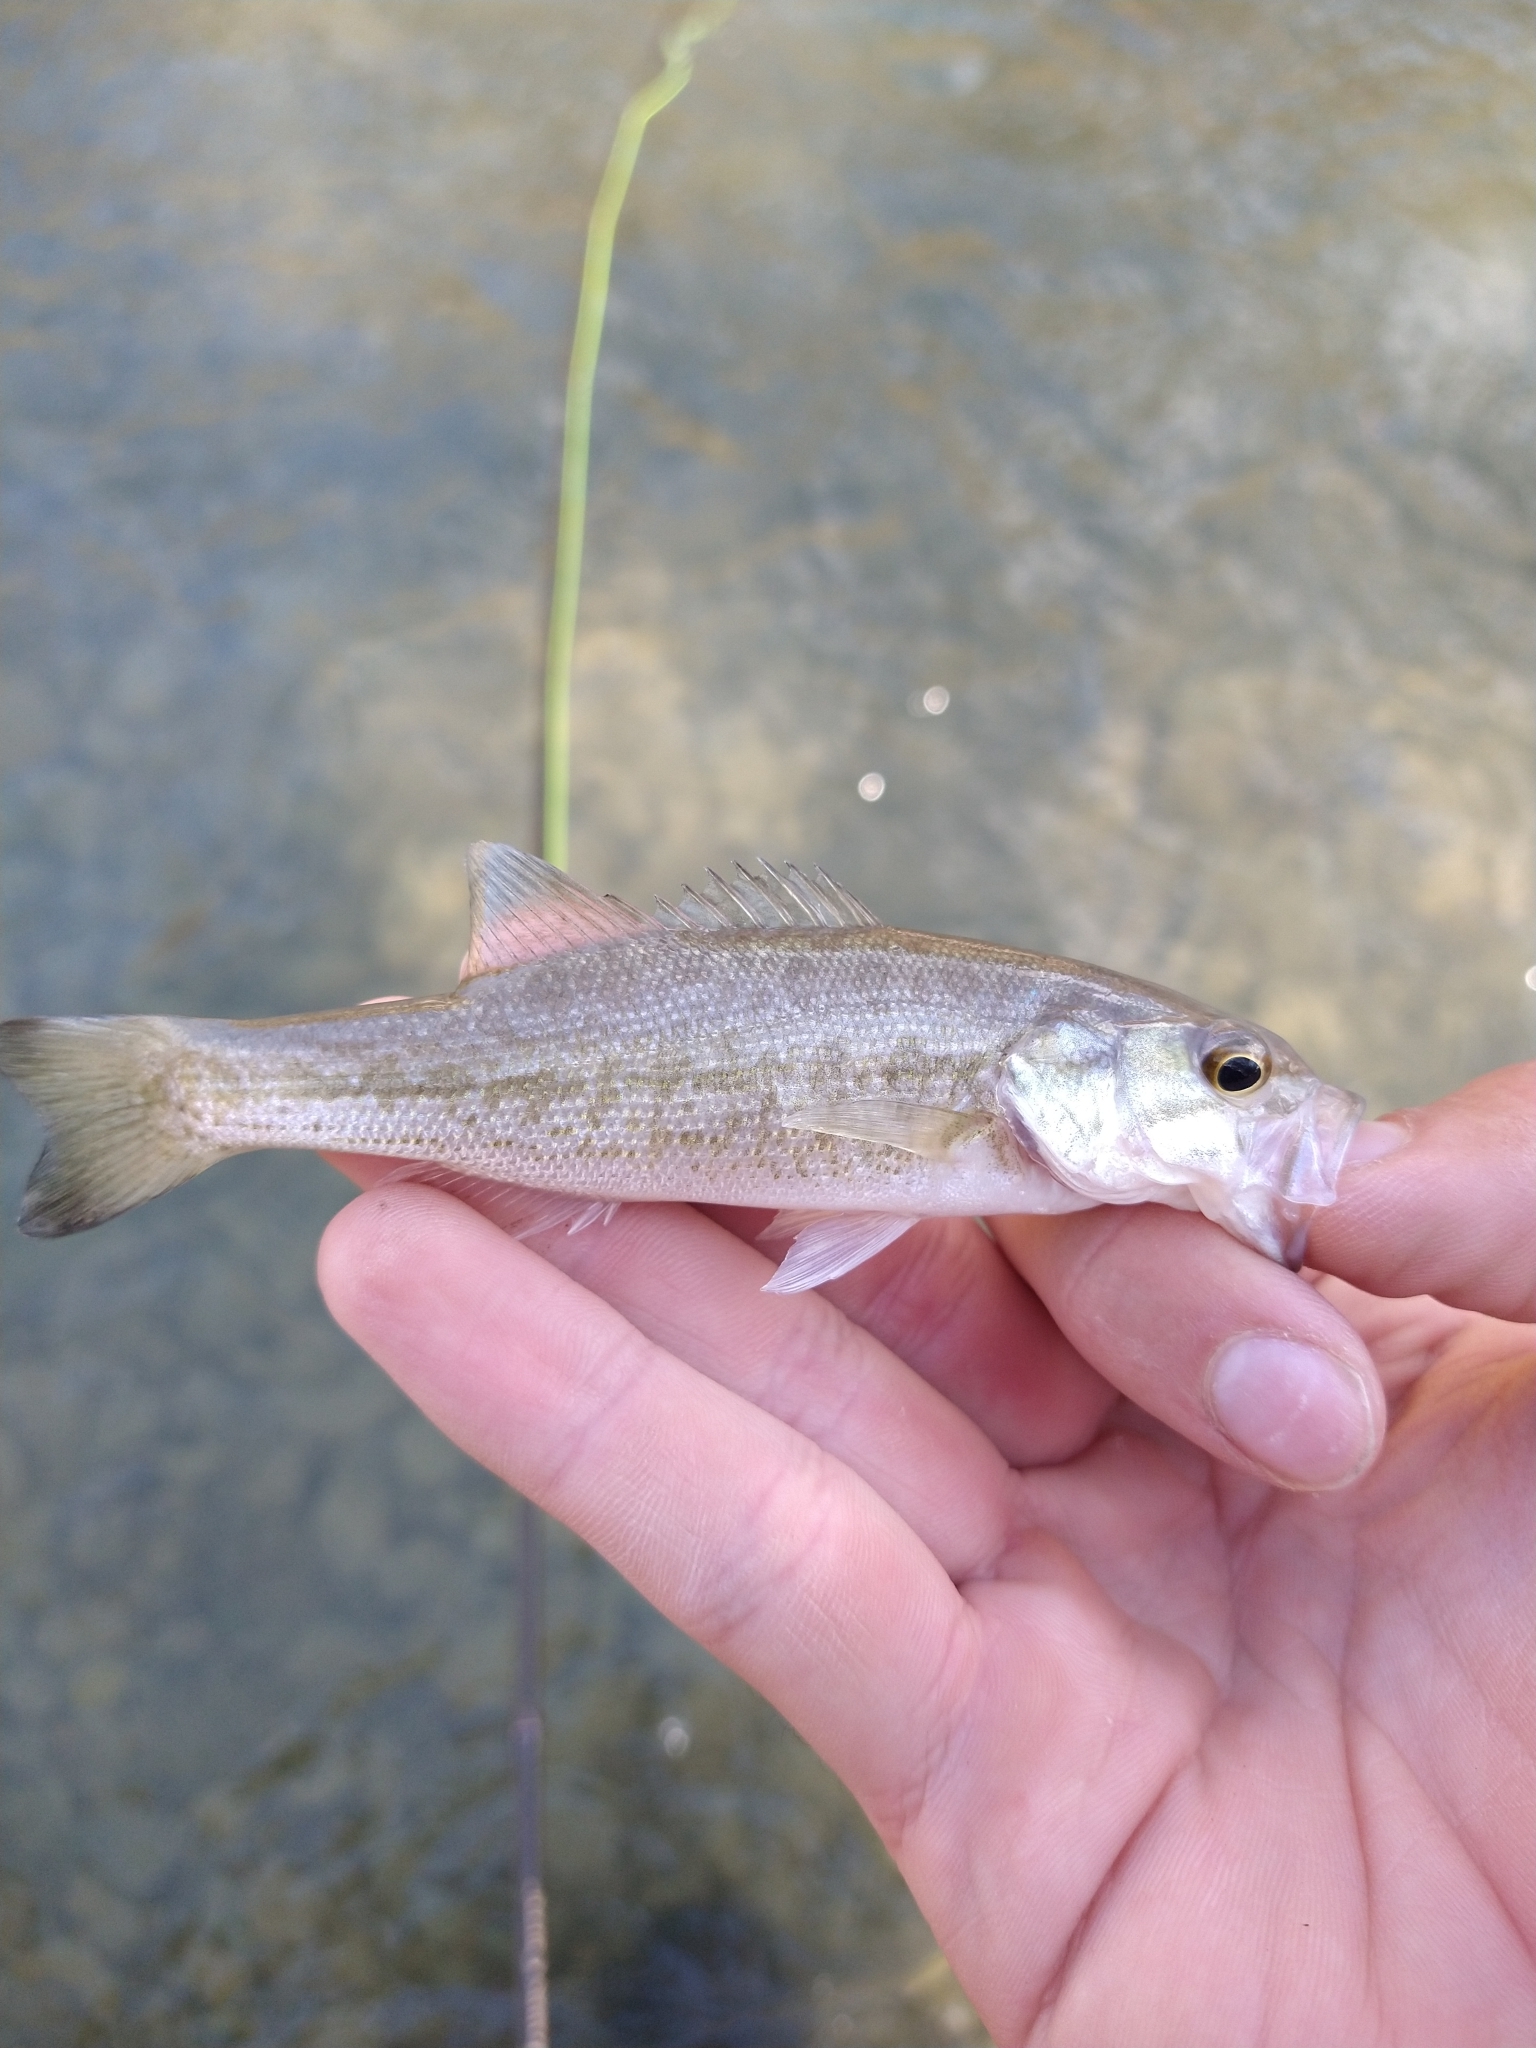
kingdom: Animalia
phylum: Chordata
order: Perciformes
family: Centrarchidae
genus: Micropterus
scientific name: Micropterus treculii
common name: Guadalupe bass
